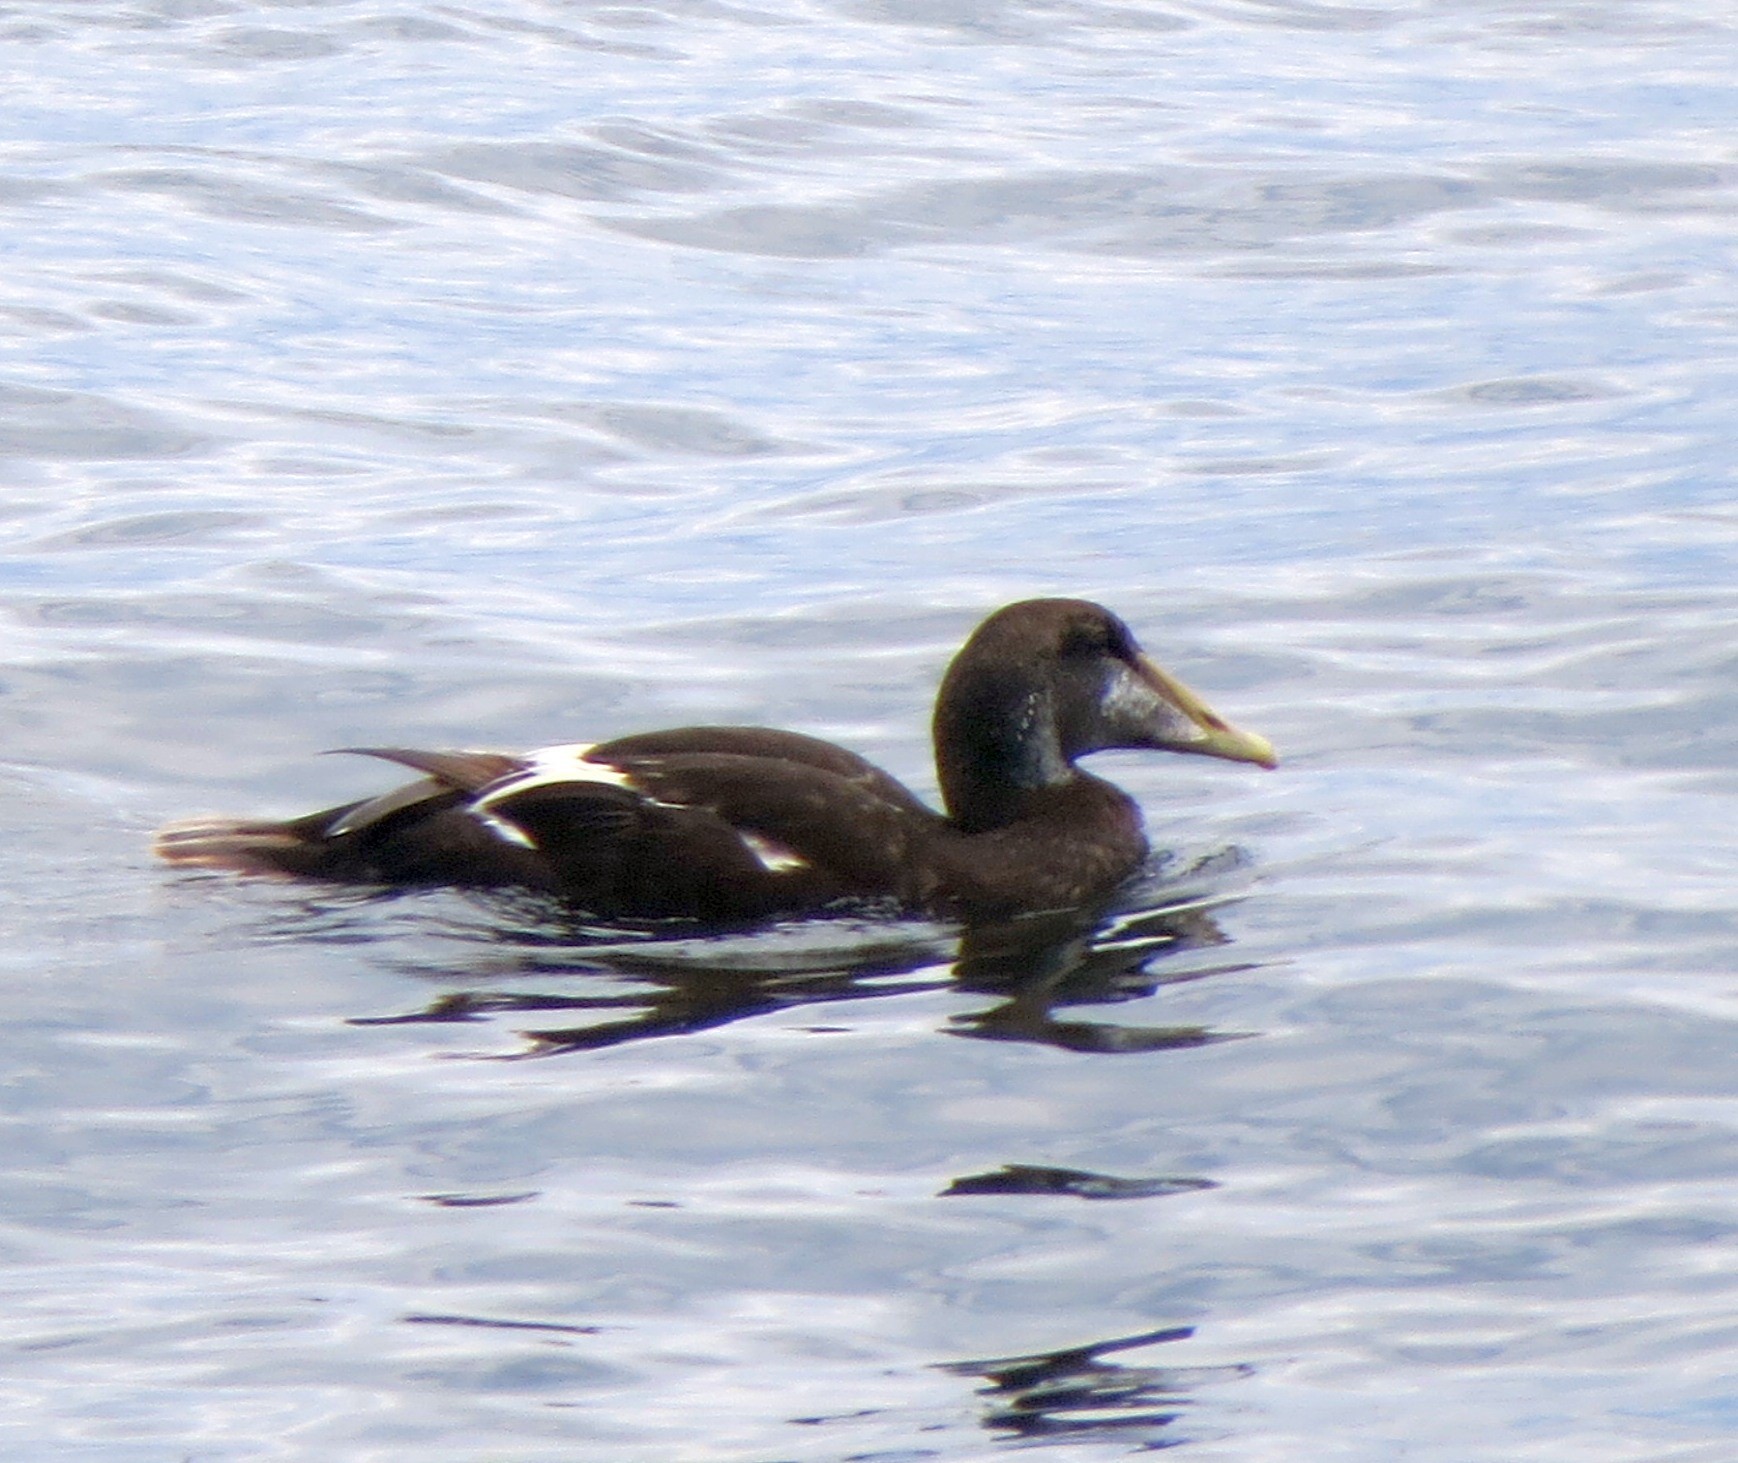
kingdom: Animalia
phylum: Chordata
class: Aves
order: Anseriformes
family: Anatidae
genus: Somateria
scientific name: Somateria mollissima
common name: Common eider
